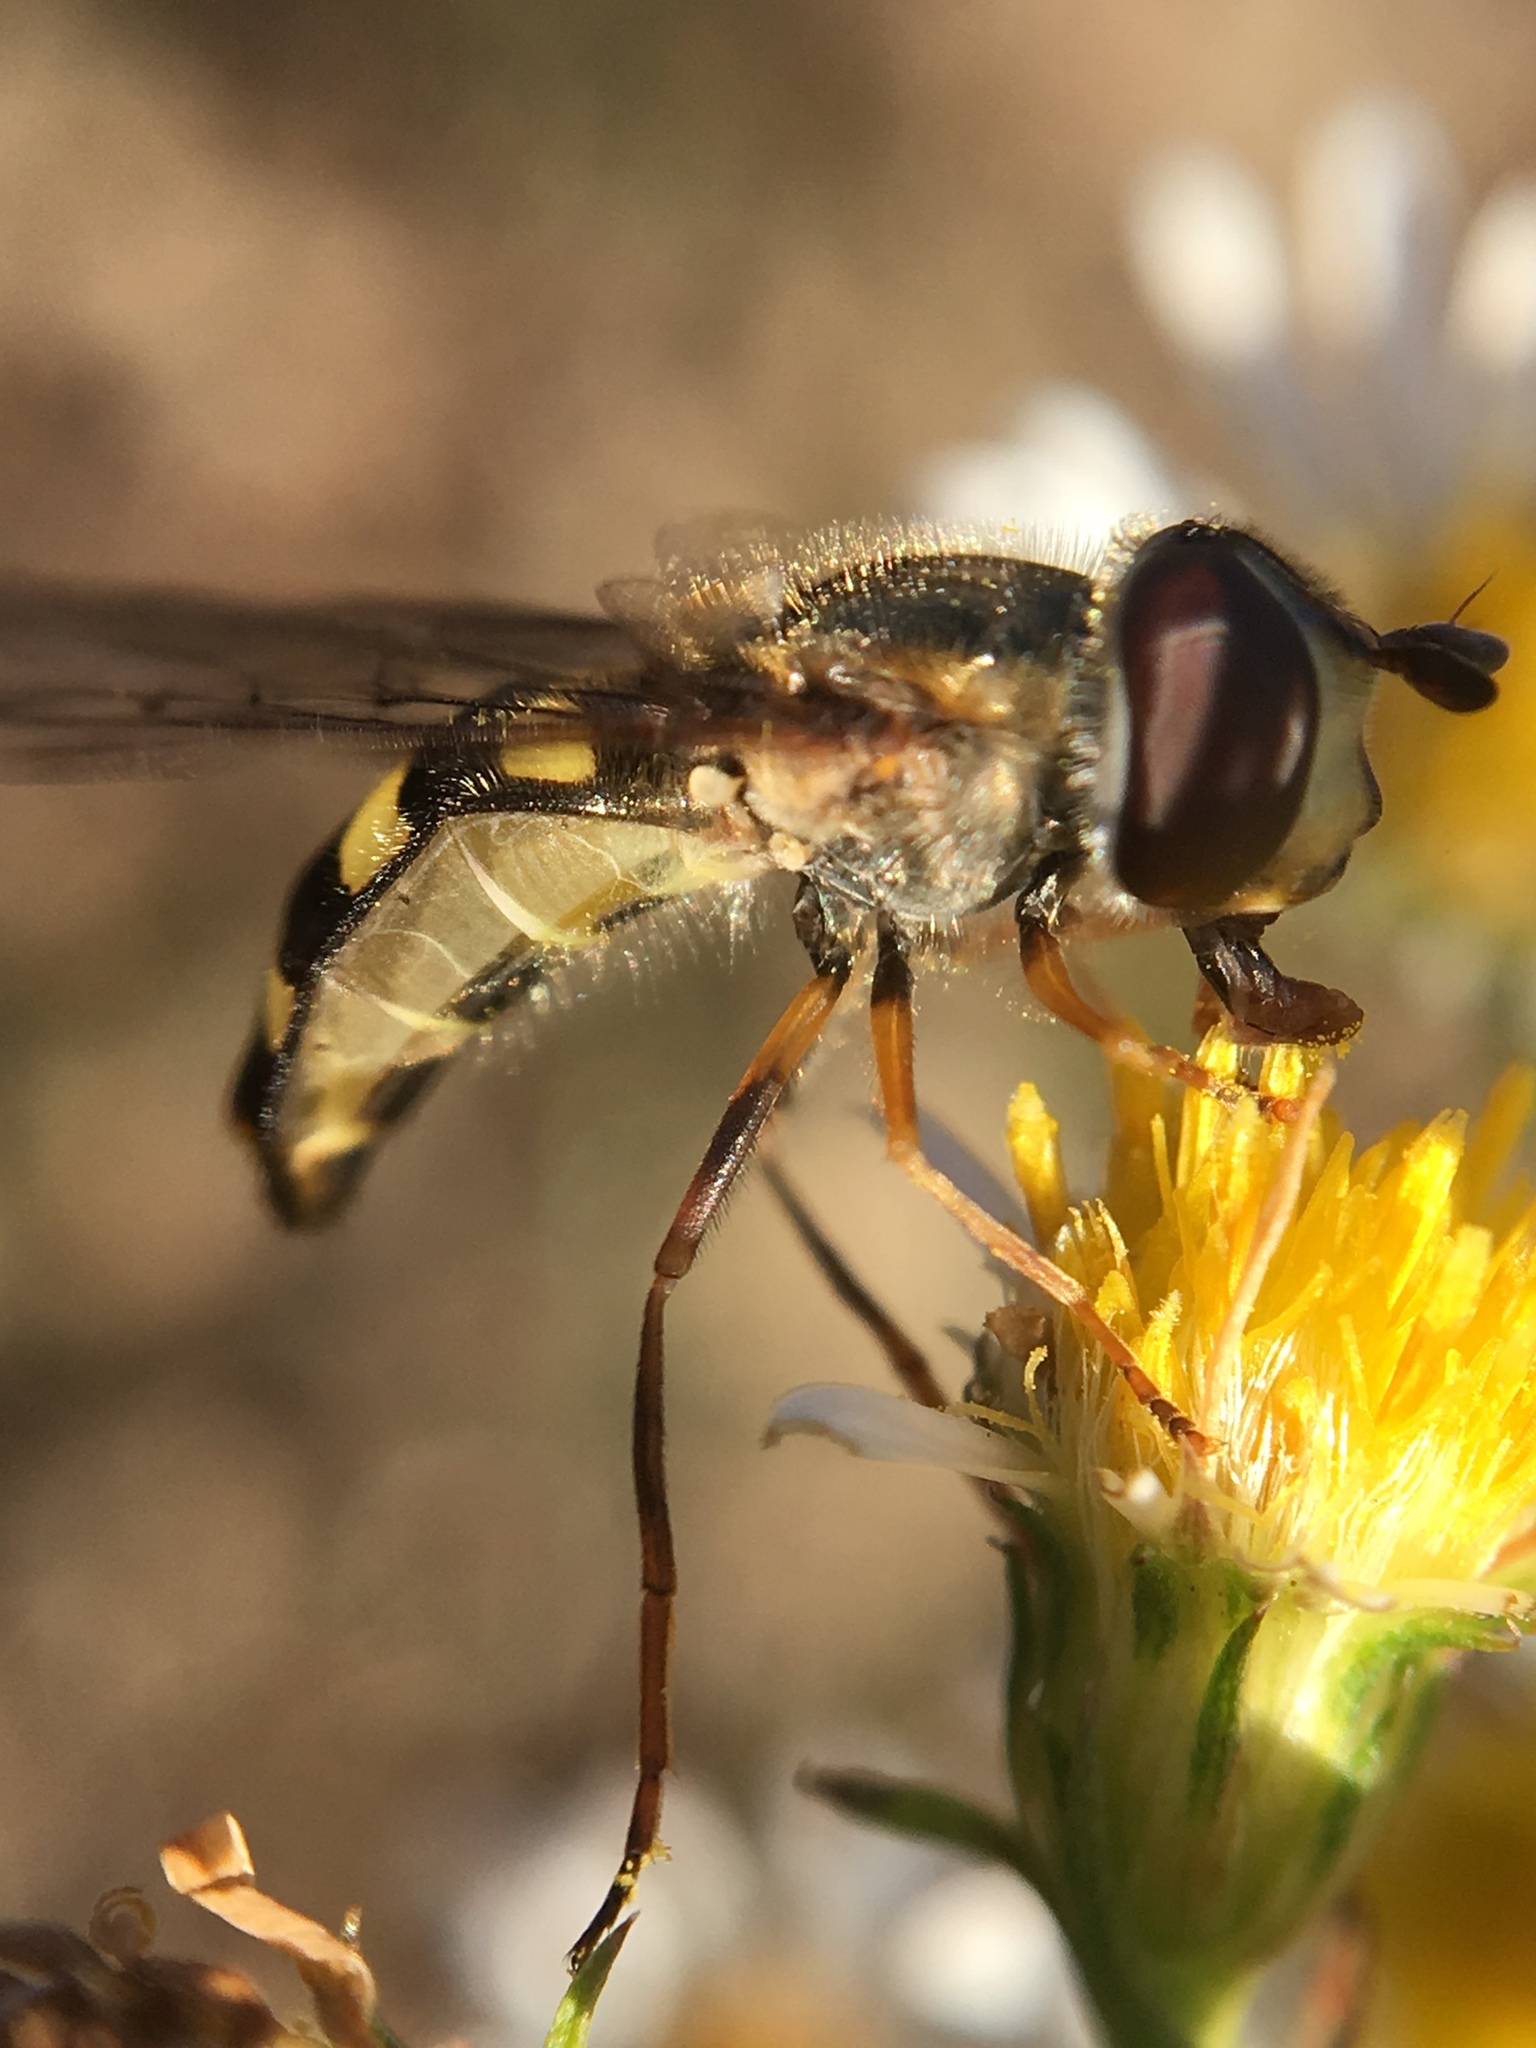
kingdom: Animalia
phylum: Arthropoda
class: Insecta
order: Diptera
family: Syrphidae
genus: Eupeodes
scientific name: Eupeodes
